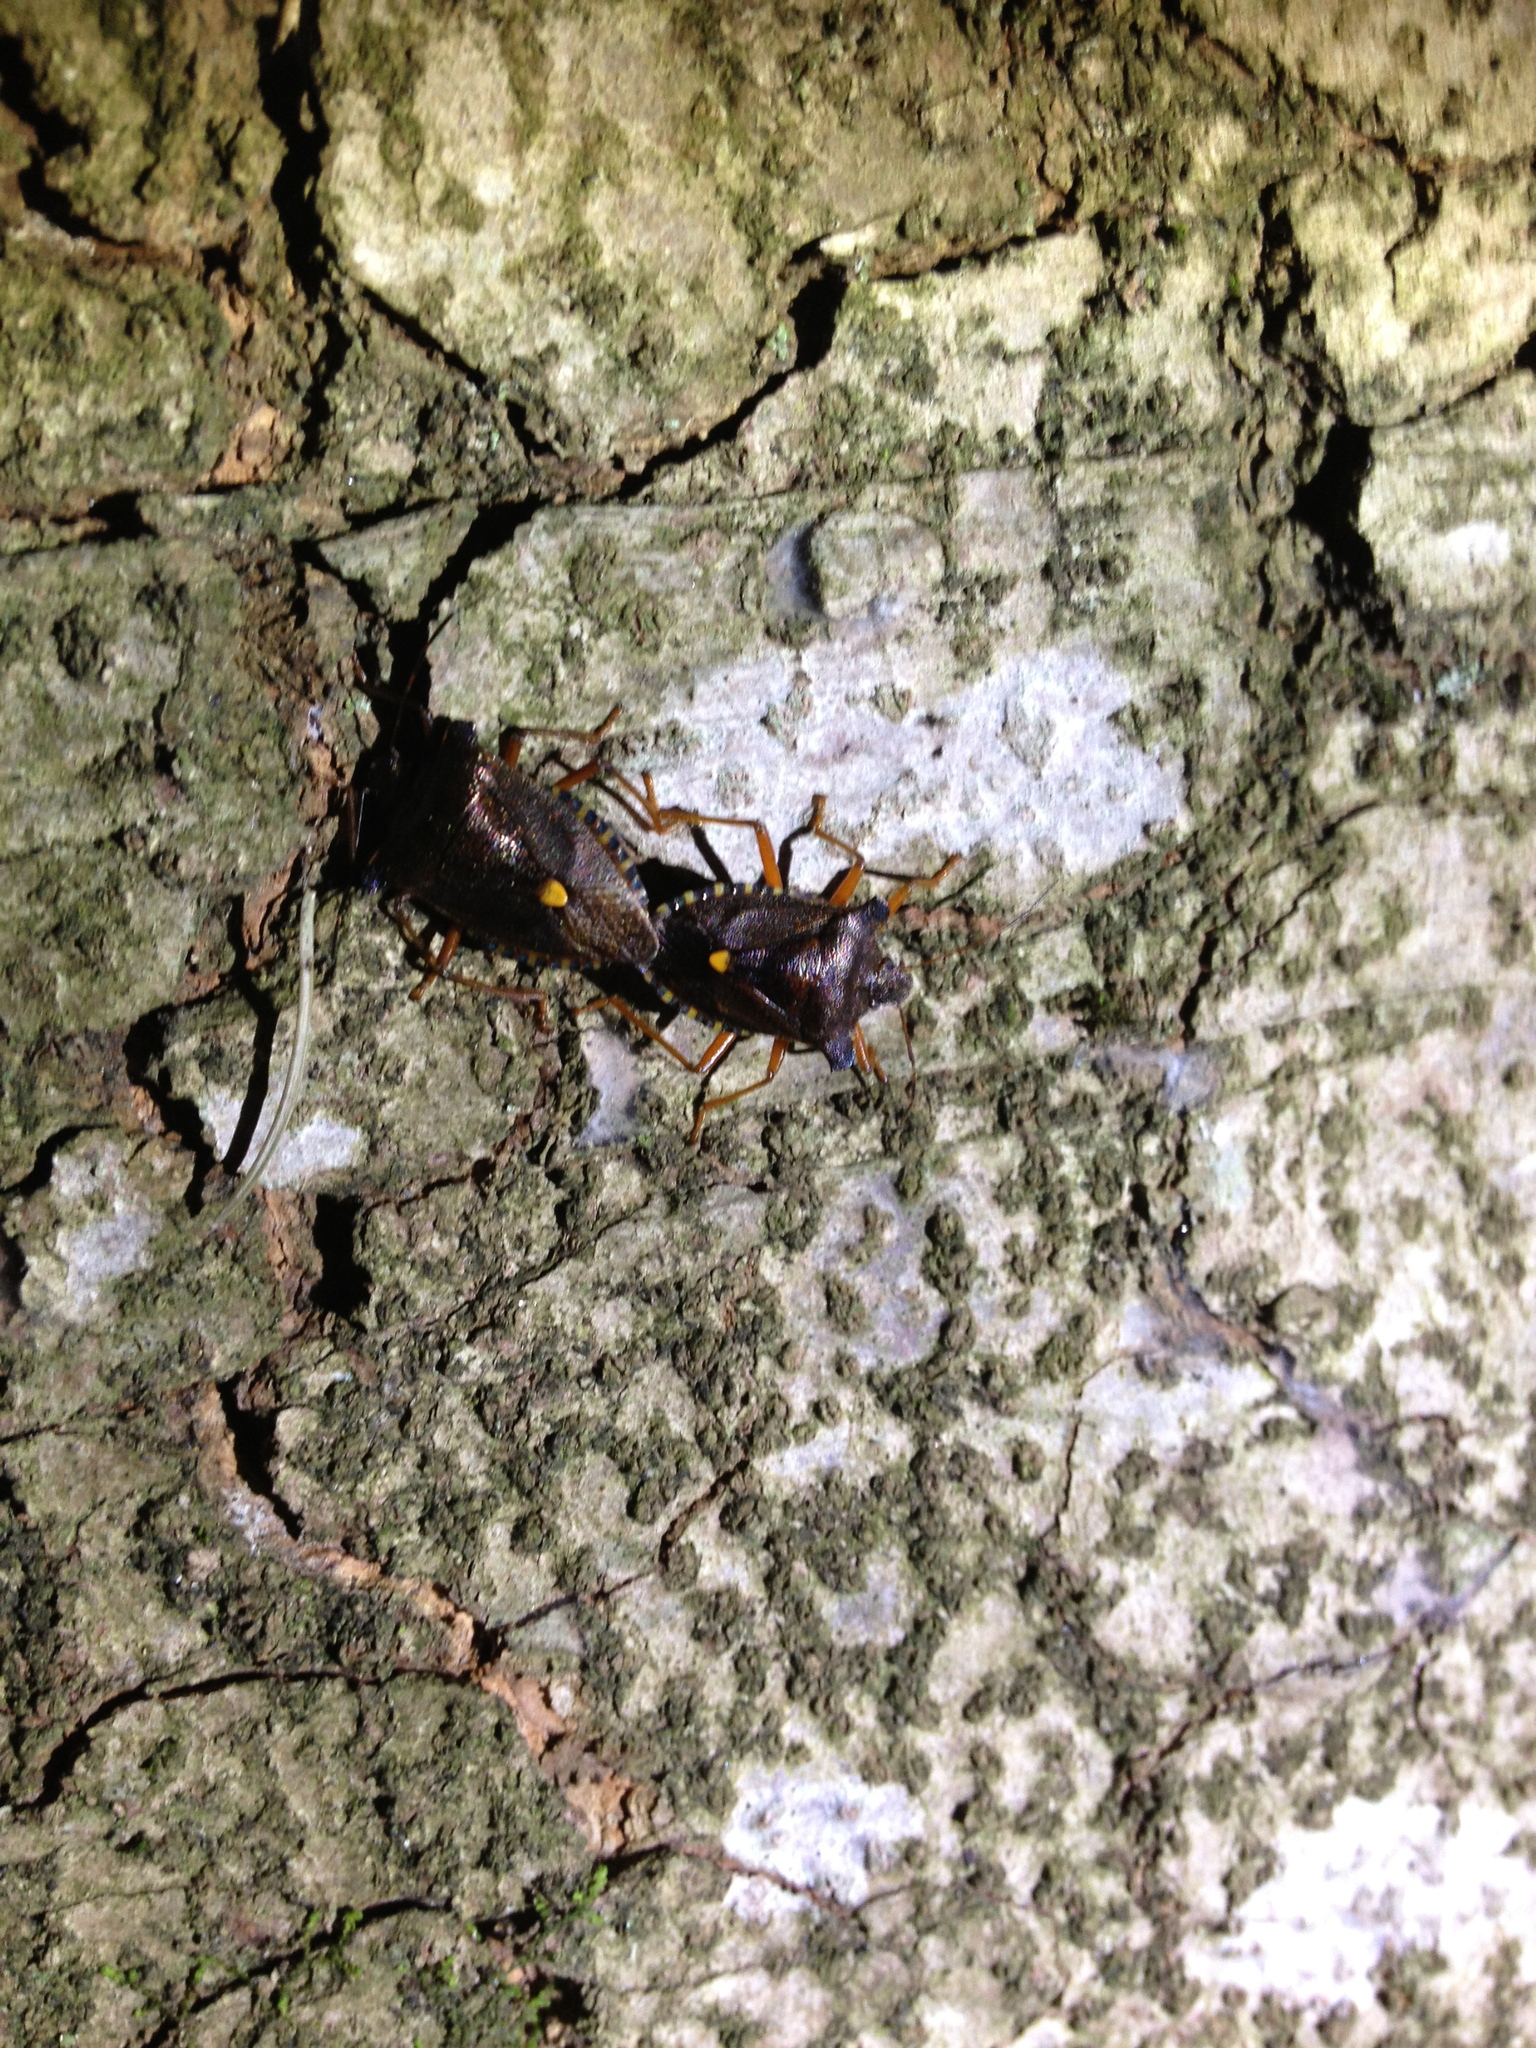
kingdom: Animalia
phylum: Arthropoda
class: Insecta
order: Hemiptera
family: Pentatomidae
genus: Pentatoma
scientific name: Pentatoma rufipes
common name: Forest bug
